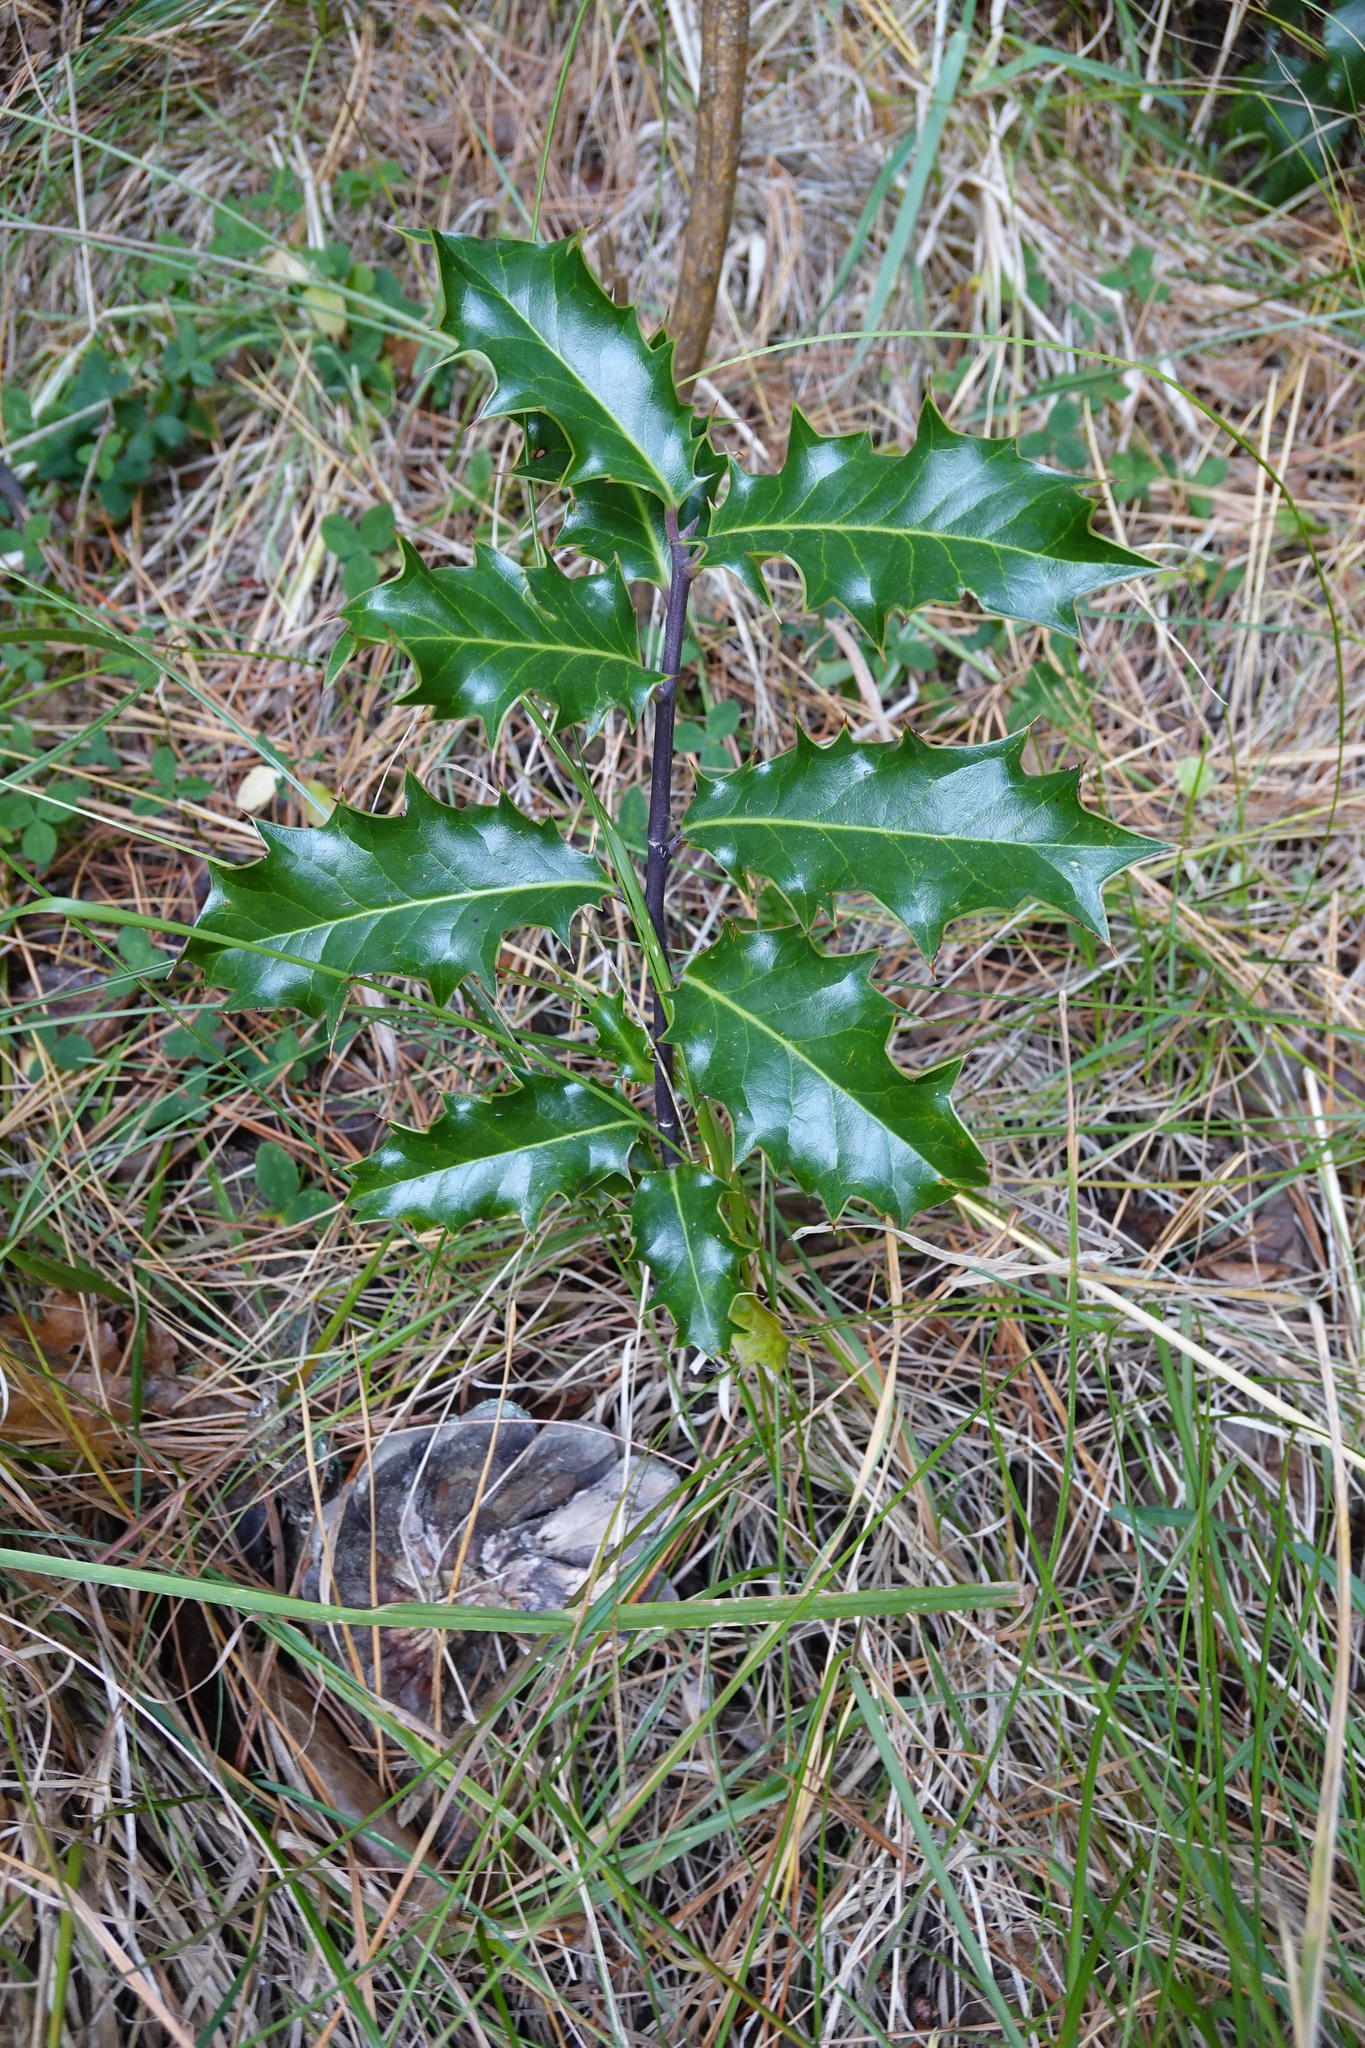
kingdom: Plantae
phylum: Tracheophyta
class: Magnoliopsida
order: Aquifoliales
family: Aquifoliaceae
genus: Ilex
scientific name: Ilex aquifolium
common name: English holly
